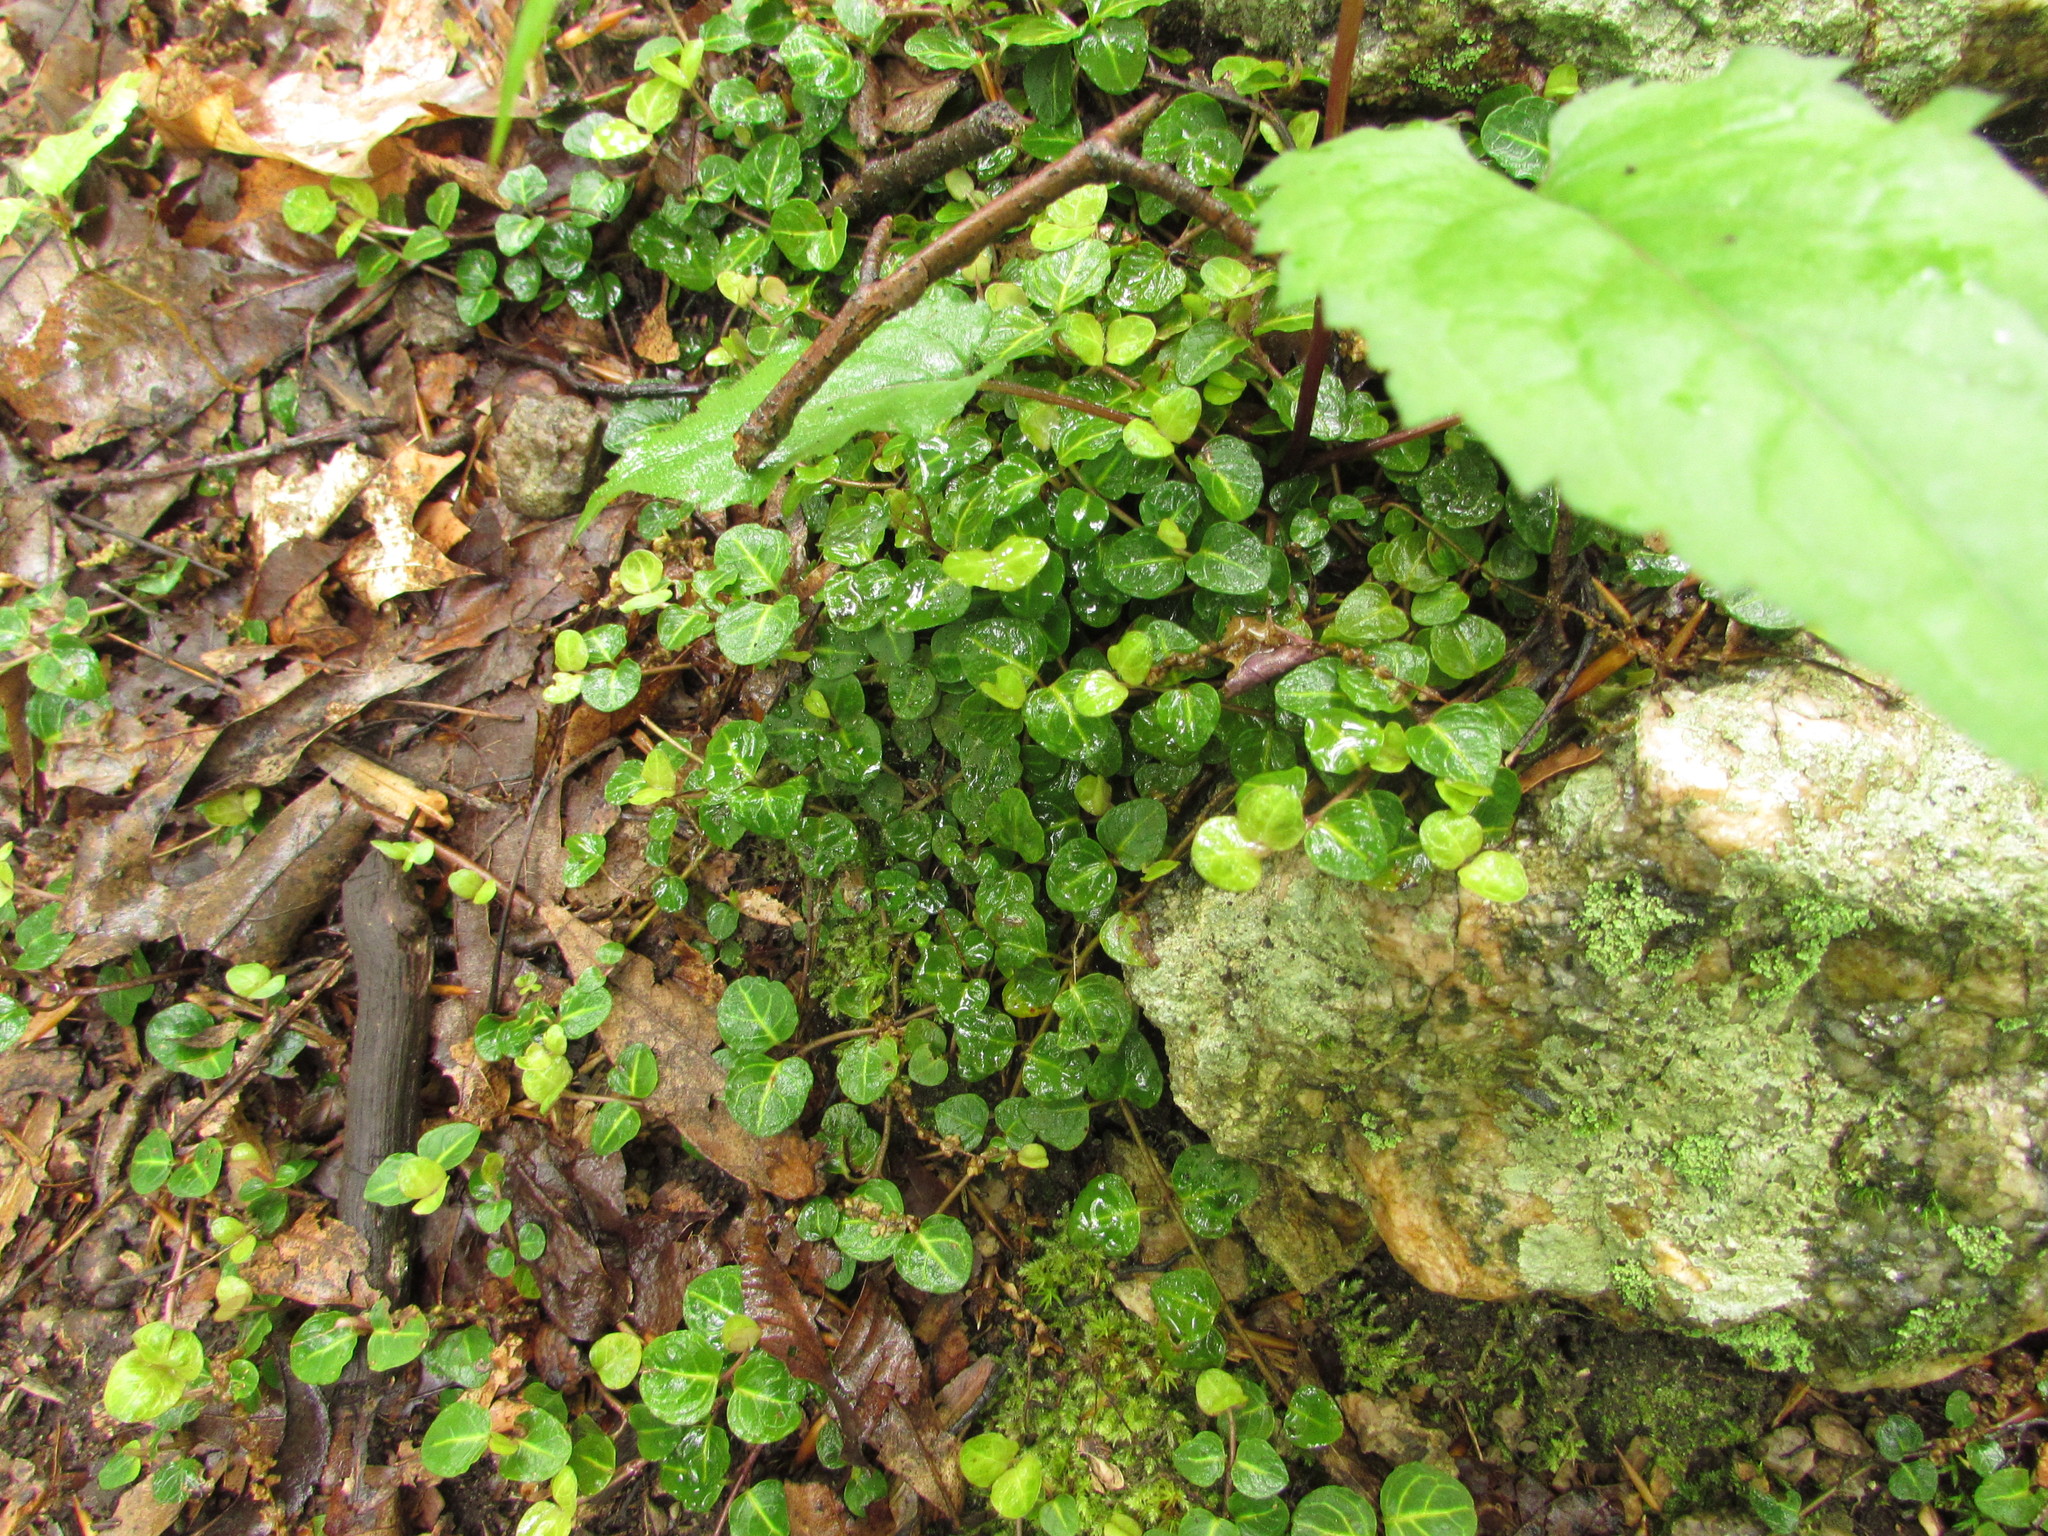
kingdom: Plantae
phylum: Tracheophyta
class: Magnoliopsida
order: Gentianales
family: Rubiaceae
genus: Mitchella
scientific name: Mitchella repens
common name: Partridge-berry
